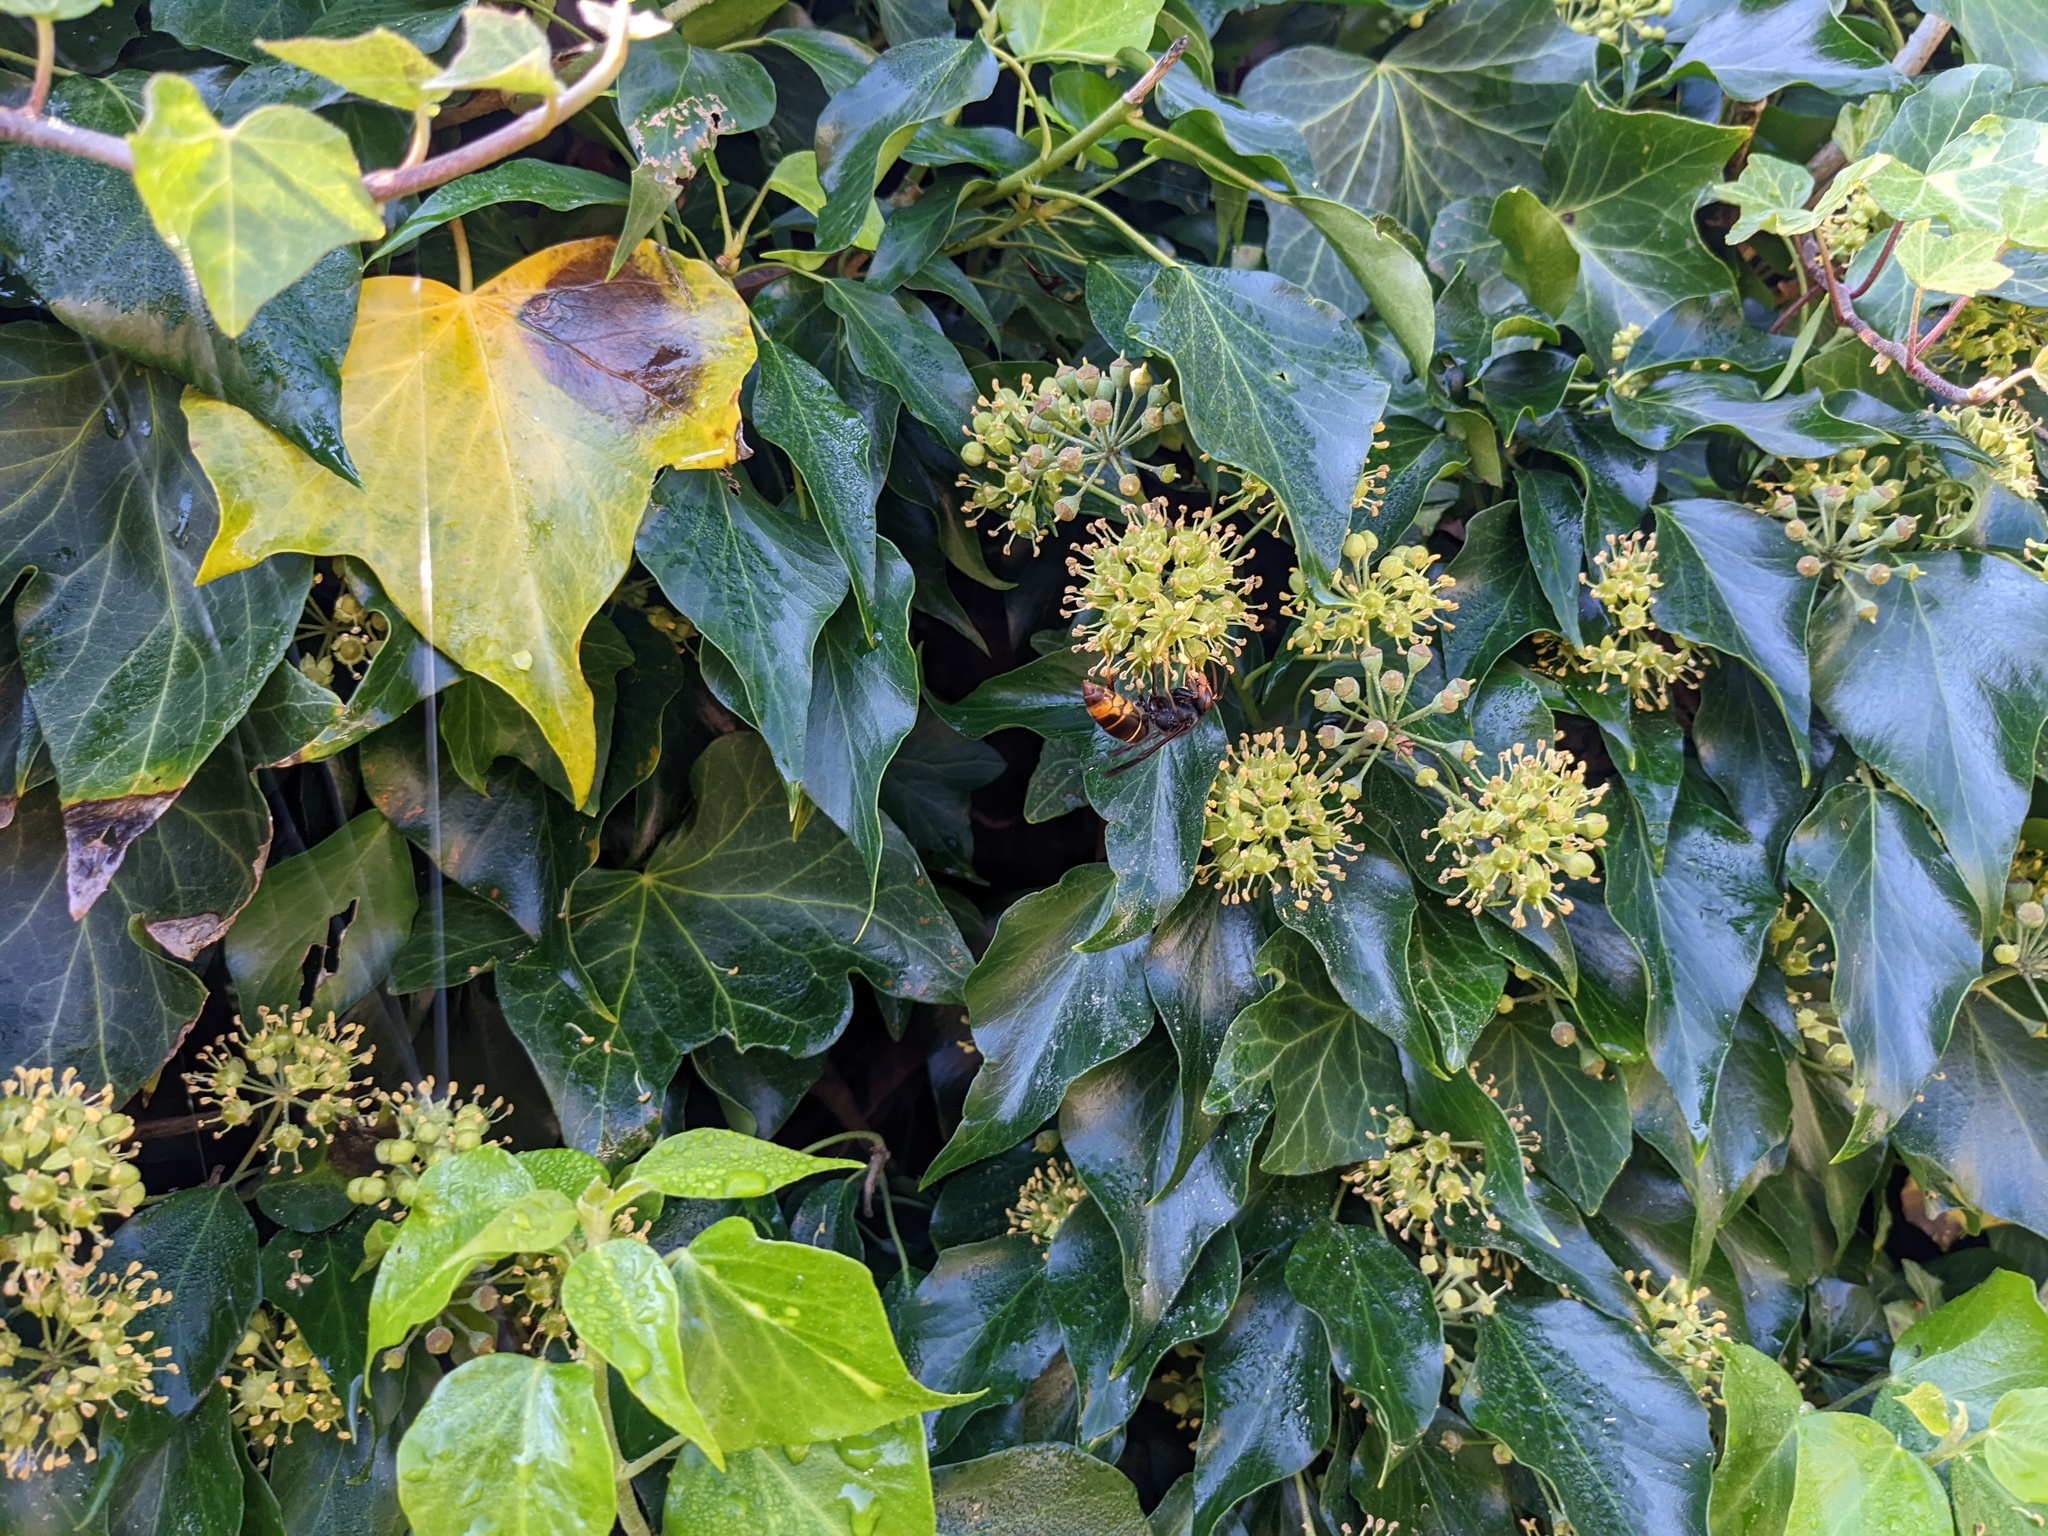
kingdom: Animalia
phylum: Arthropoda
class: Insecta
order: Hymenoptera
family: Vespidae
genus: Vespa
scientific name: Vespa velutina
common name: Asian hornet
